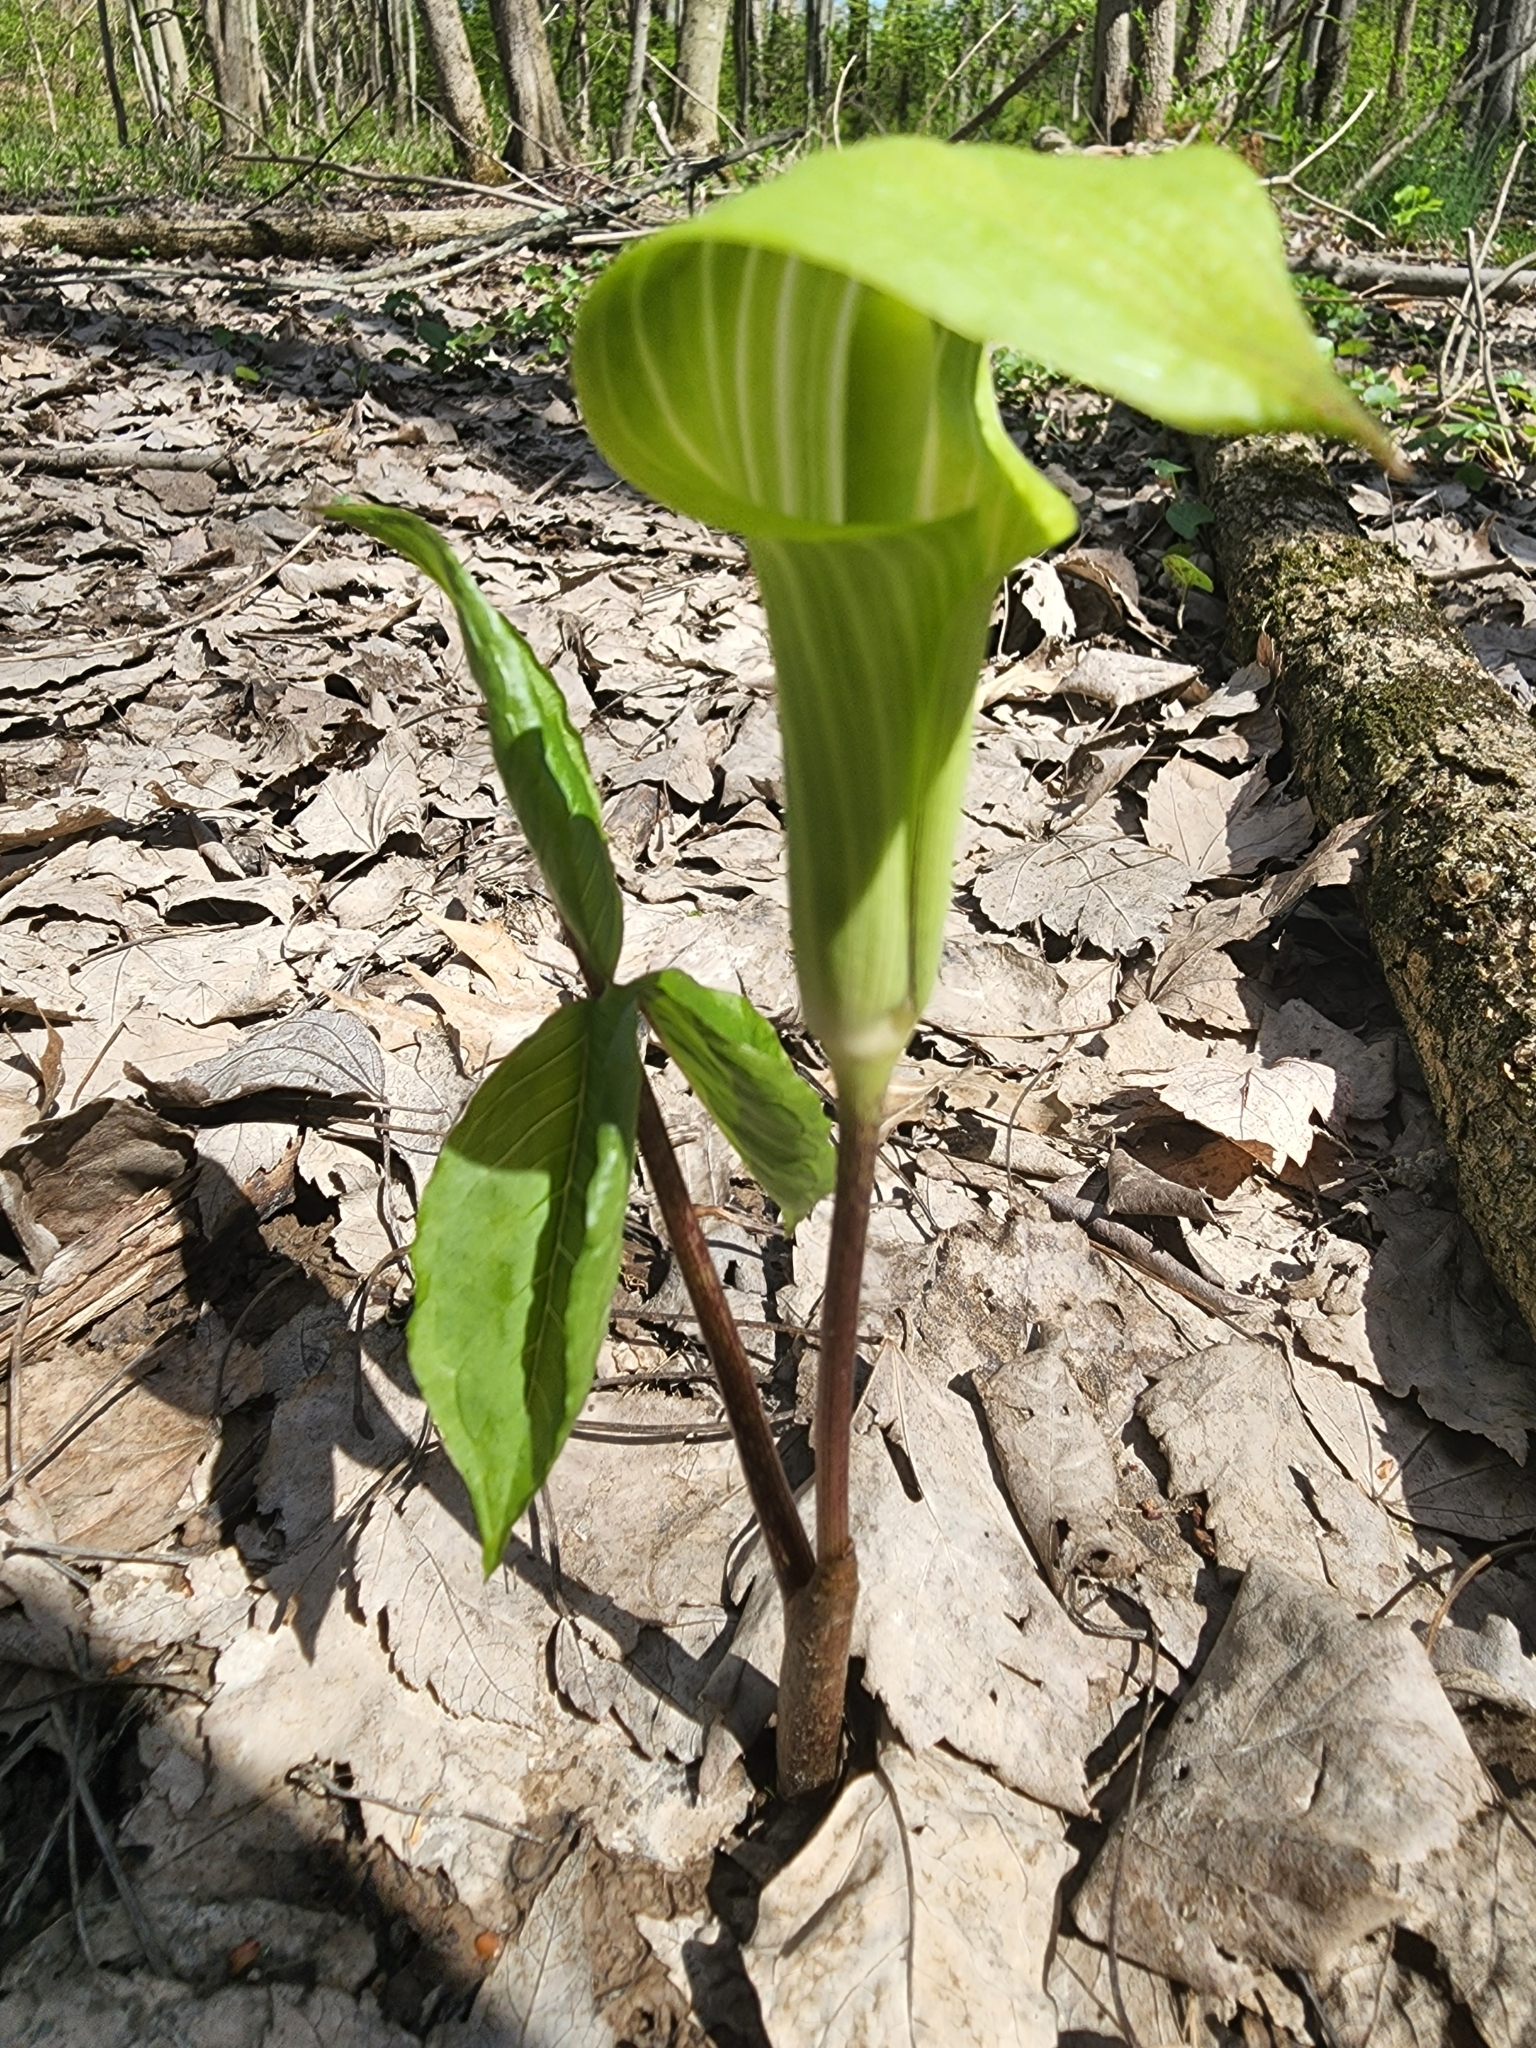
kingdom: Plantae
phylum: Tracheophyta
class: Liliopsida
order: Alismatales
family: Araceae
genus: Arisaema
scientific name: Arisaema triphyllum
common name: Jack-in-the-pulpit
